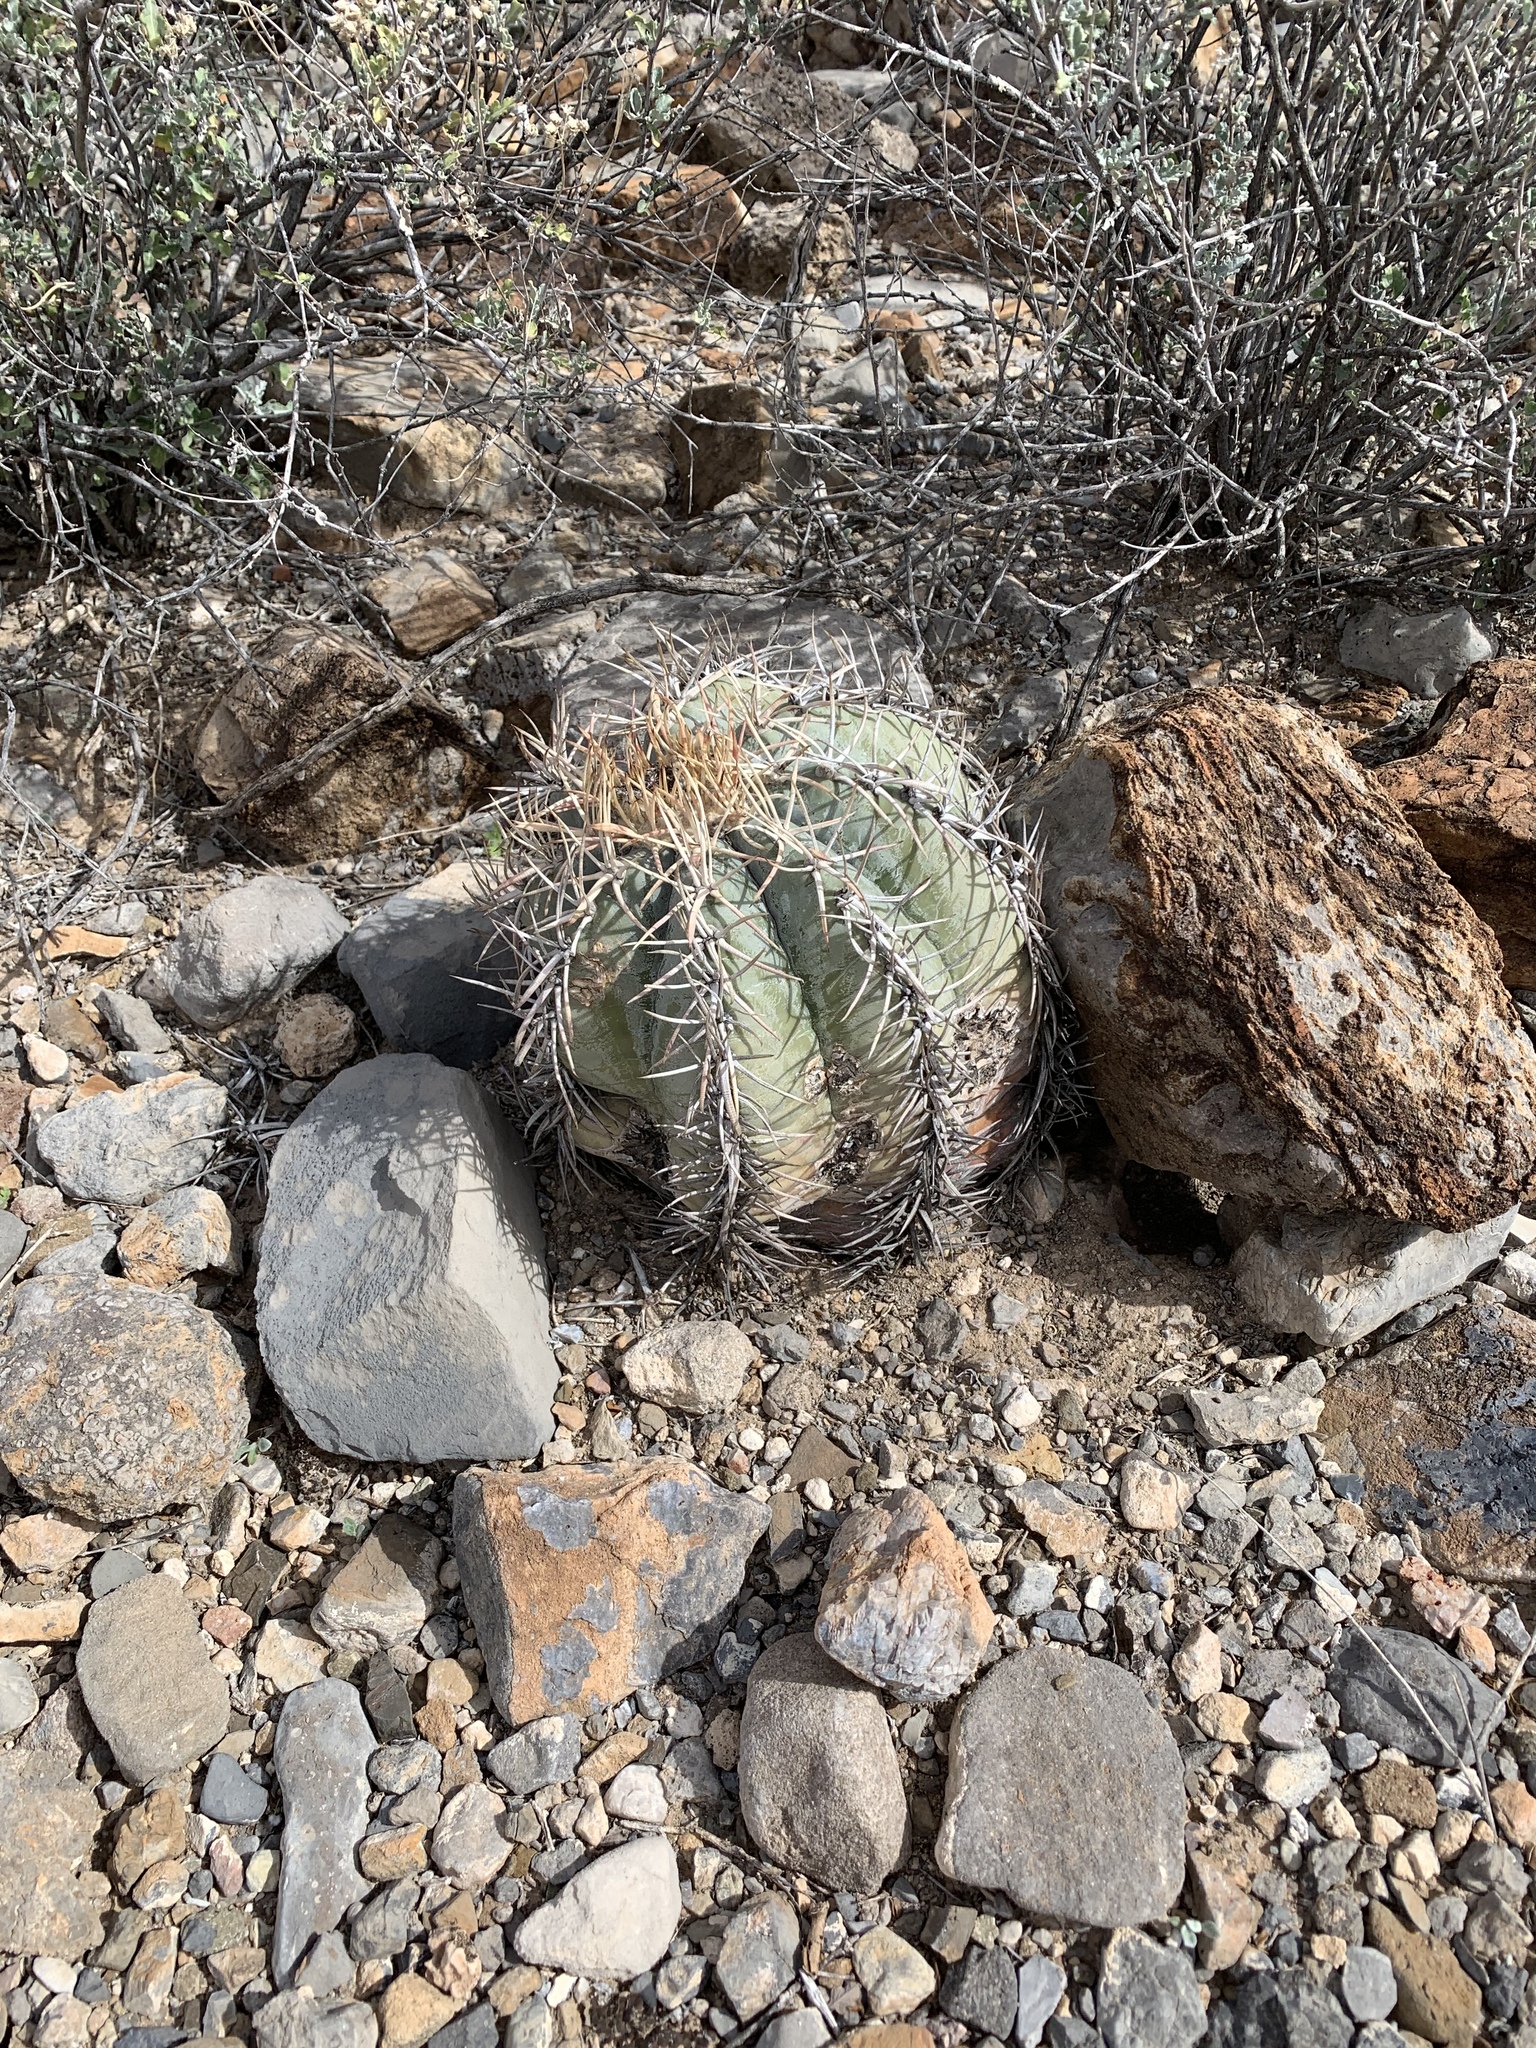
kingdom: Plantae
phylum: Tracheophyta
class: Magnoliopsida
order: Caryophyllales
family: Cactaceae
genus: Echinocactus
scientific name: Echinocactus horizonthalonius
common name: Devilshead
